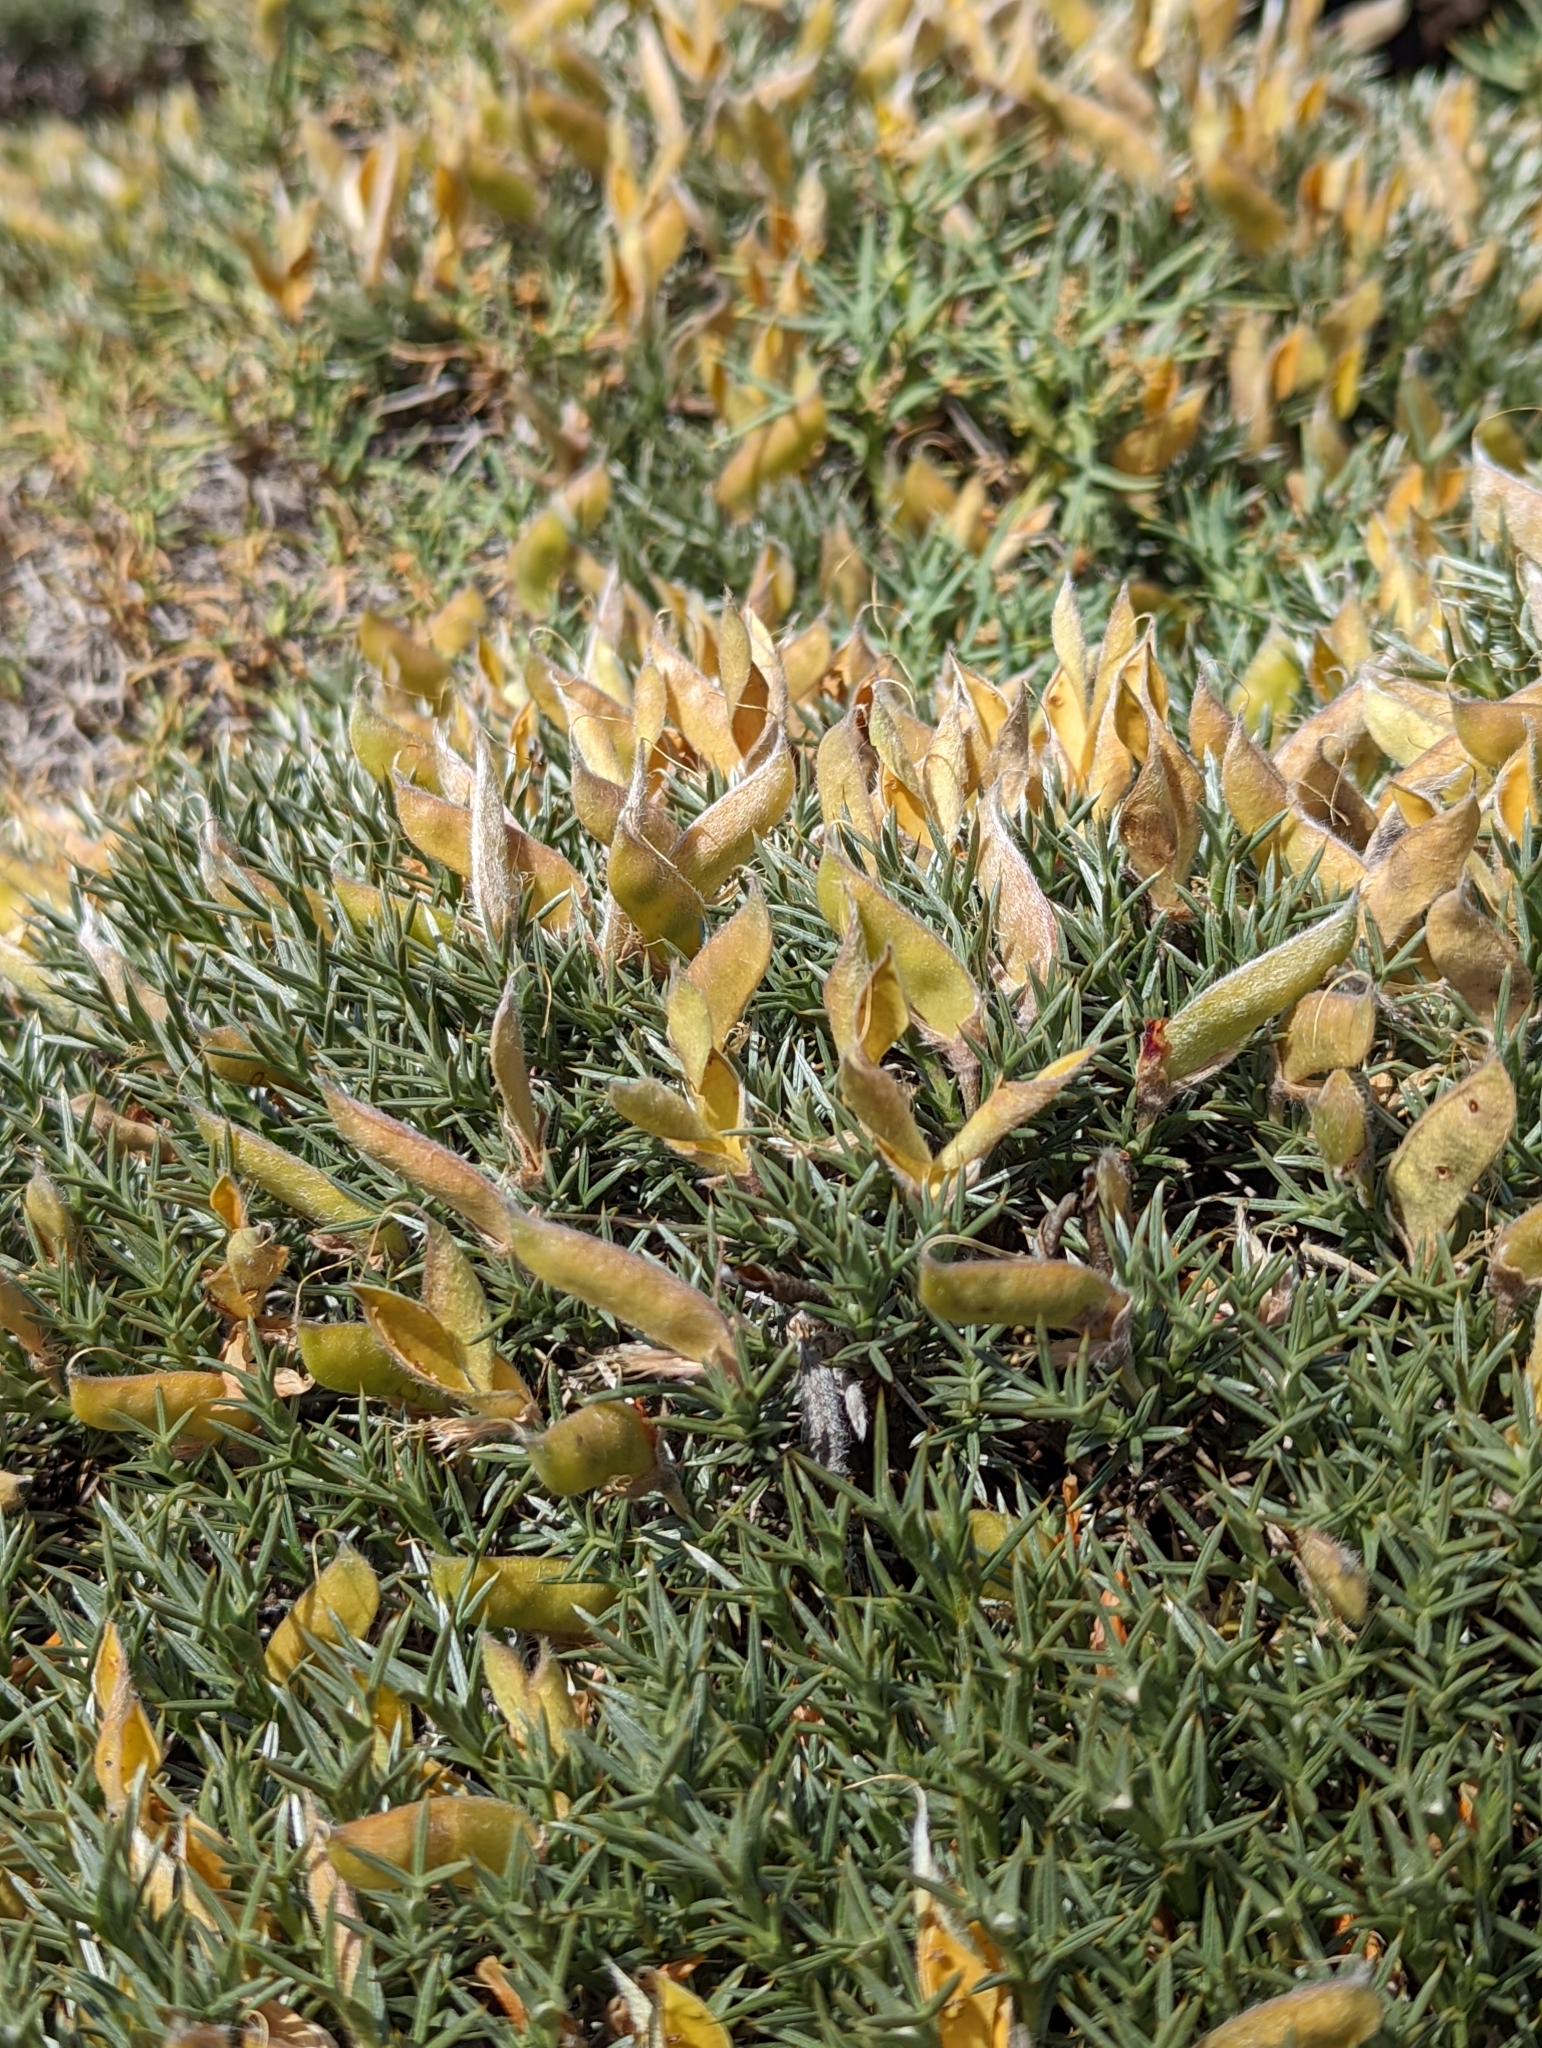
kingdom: Plantae
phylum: Tracheophyta
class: Magnoliopsida
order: Fabales
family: Fabaceae
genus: Anarthrophyllum
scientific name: Anarthrophyllum desideratum
